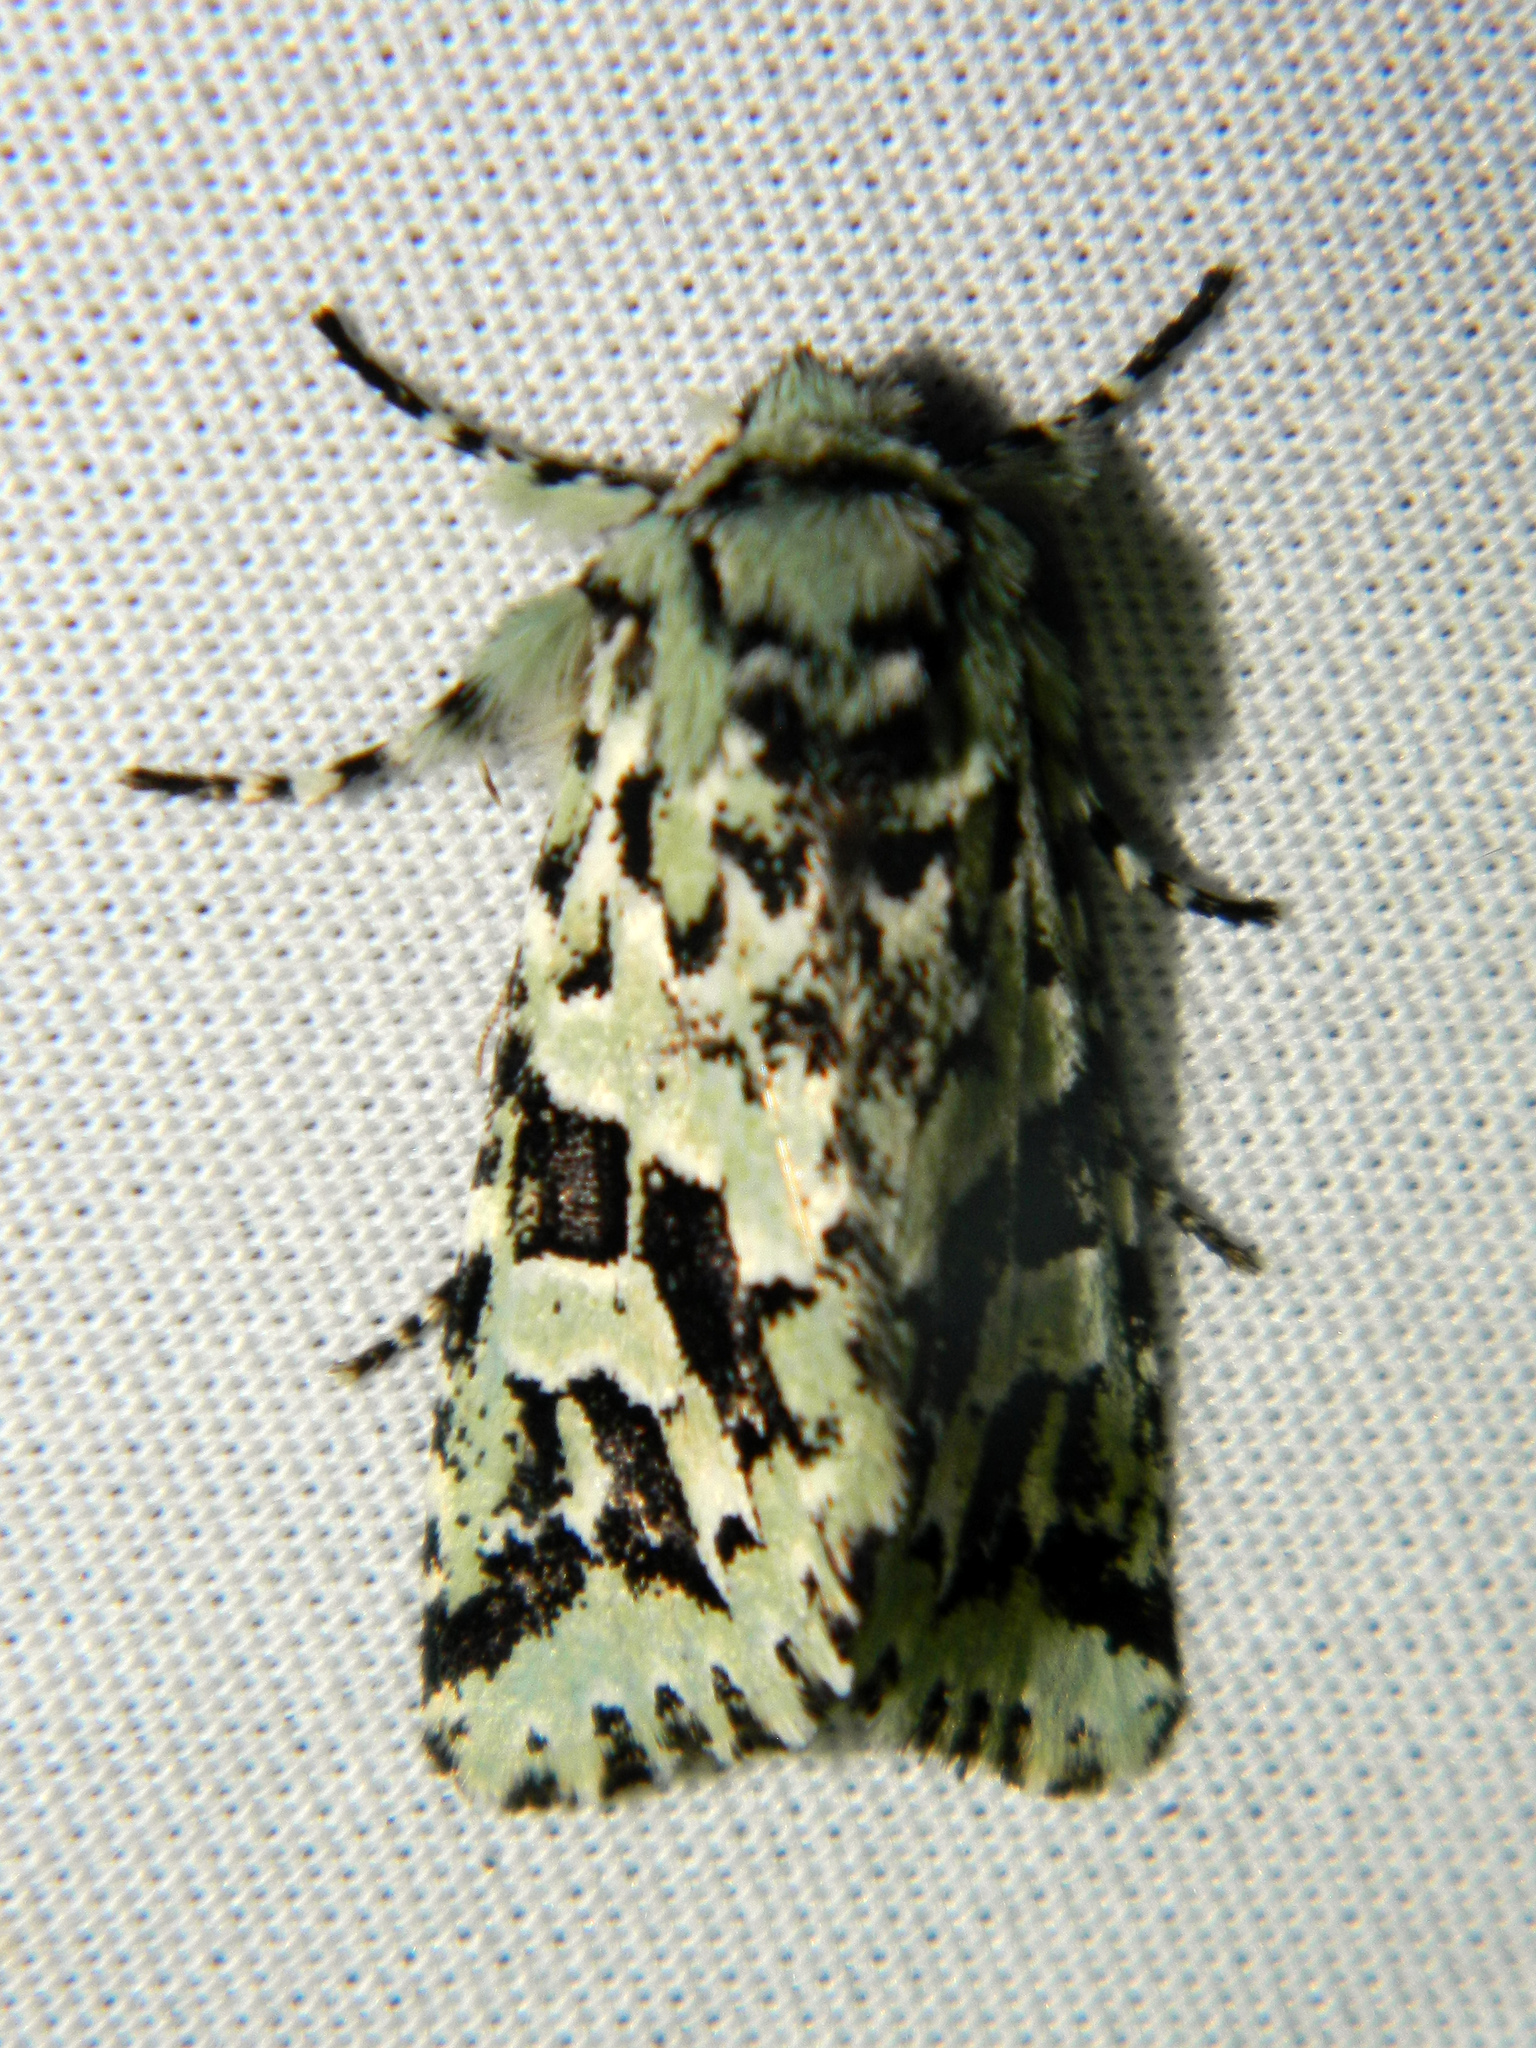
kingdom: Animalia
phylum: Arthropoda
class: Insecta
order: Lepidoptera
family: Noctuidae
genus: Feralia
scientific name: Feralia comstocki
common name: Comstock's sallow
